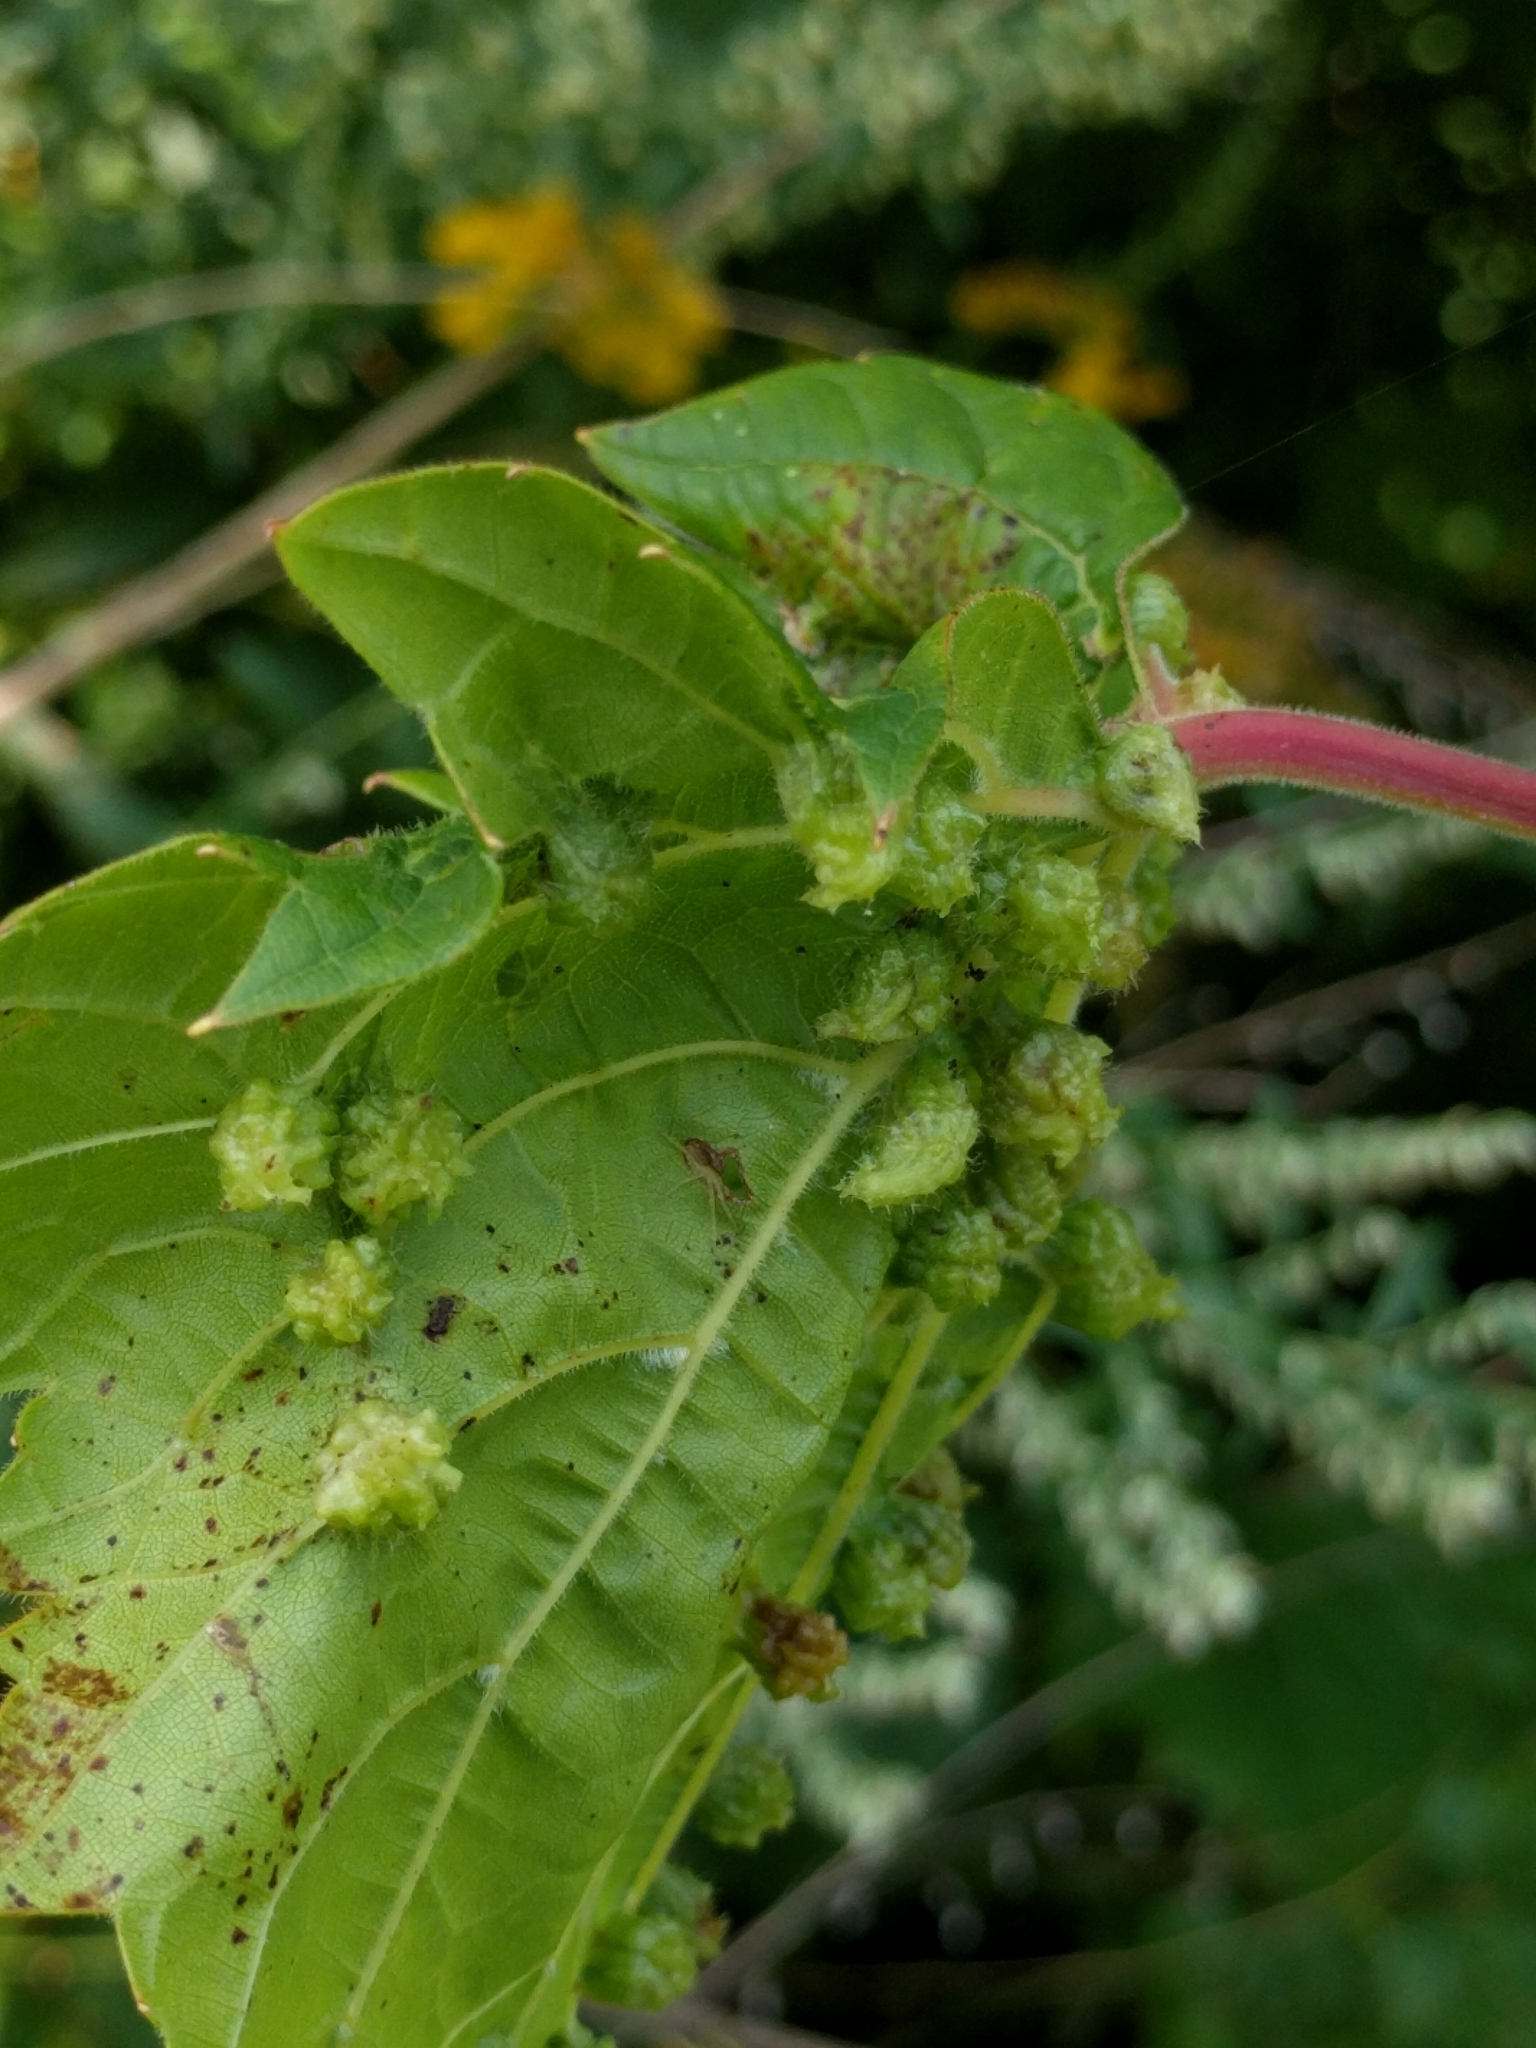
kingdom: Animalia
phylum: Arthropoda
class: Insecta
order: Hemiptera
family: Phylloxeridae
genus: Daktulosphaira
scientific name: Daktulosphaira vitifoliae
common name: Grape phylloxera
